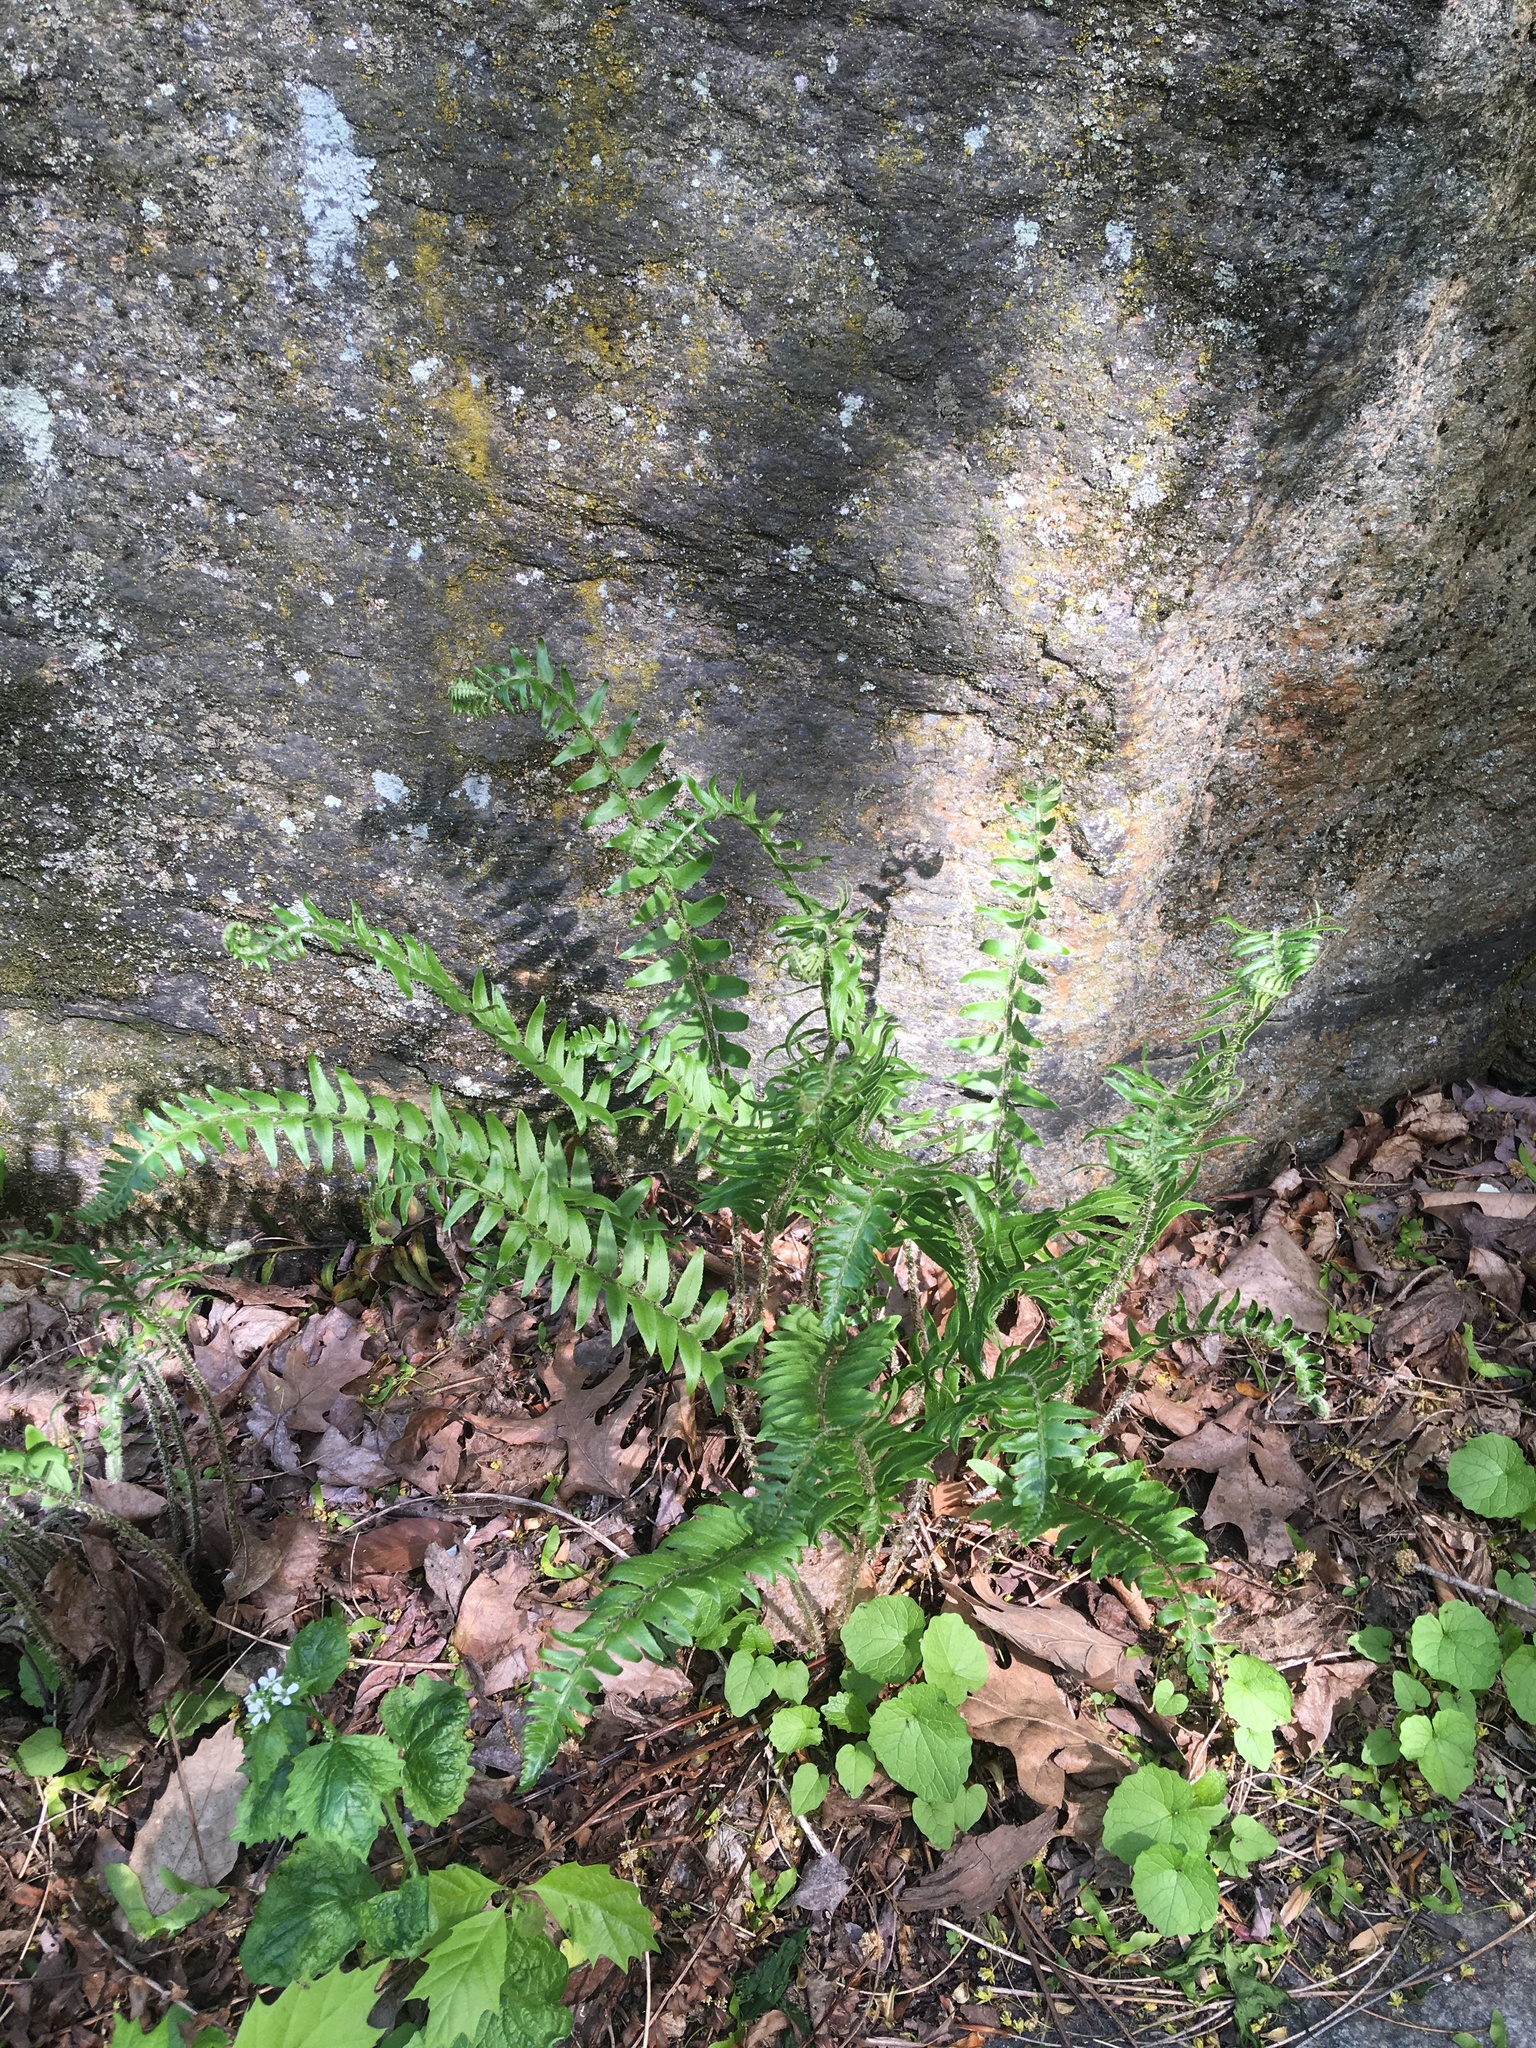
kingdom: Plantae
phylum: Tracheophyta
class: Polypodiopsida
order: Polypodiales
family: Dryopteridaceae
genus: Polystichum
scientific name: Polystichum acrostichoides
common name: Christmas fern
